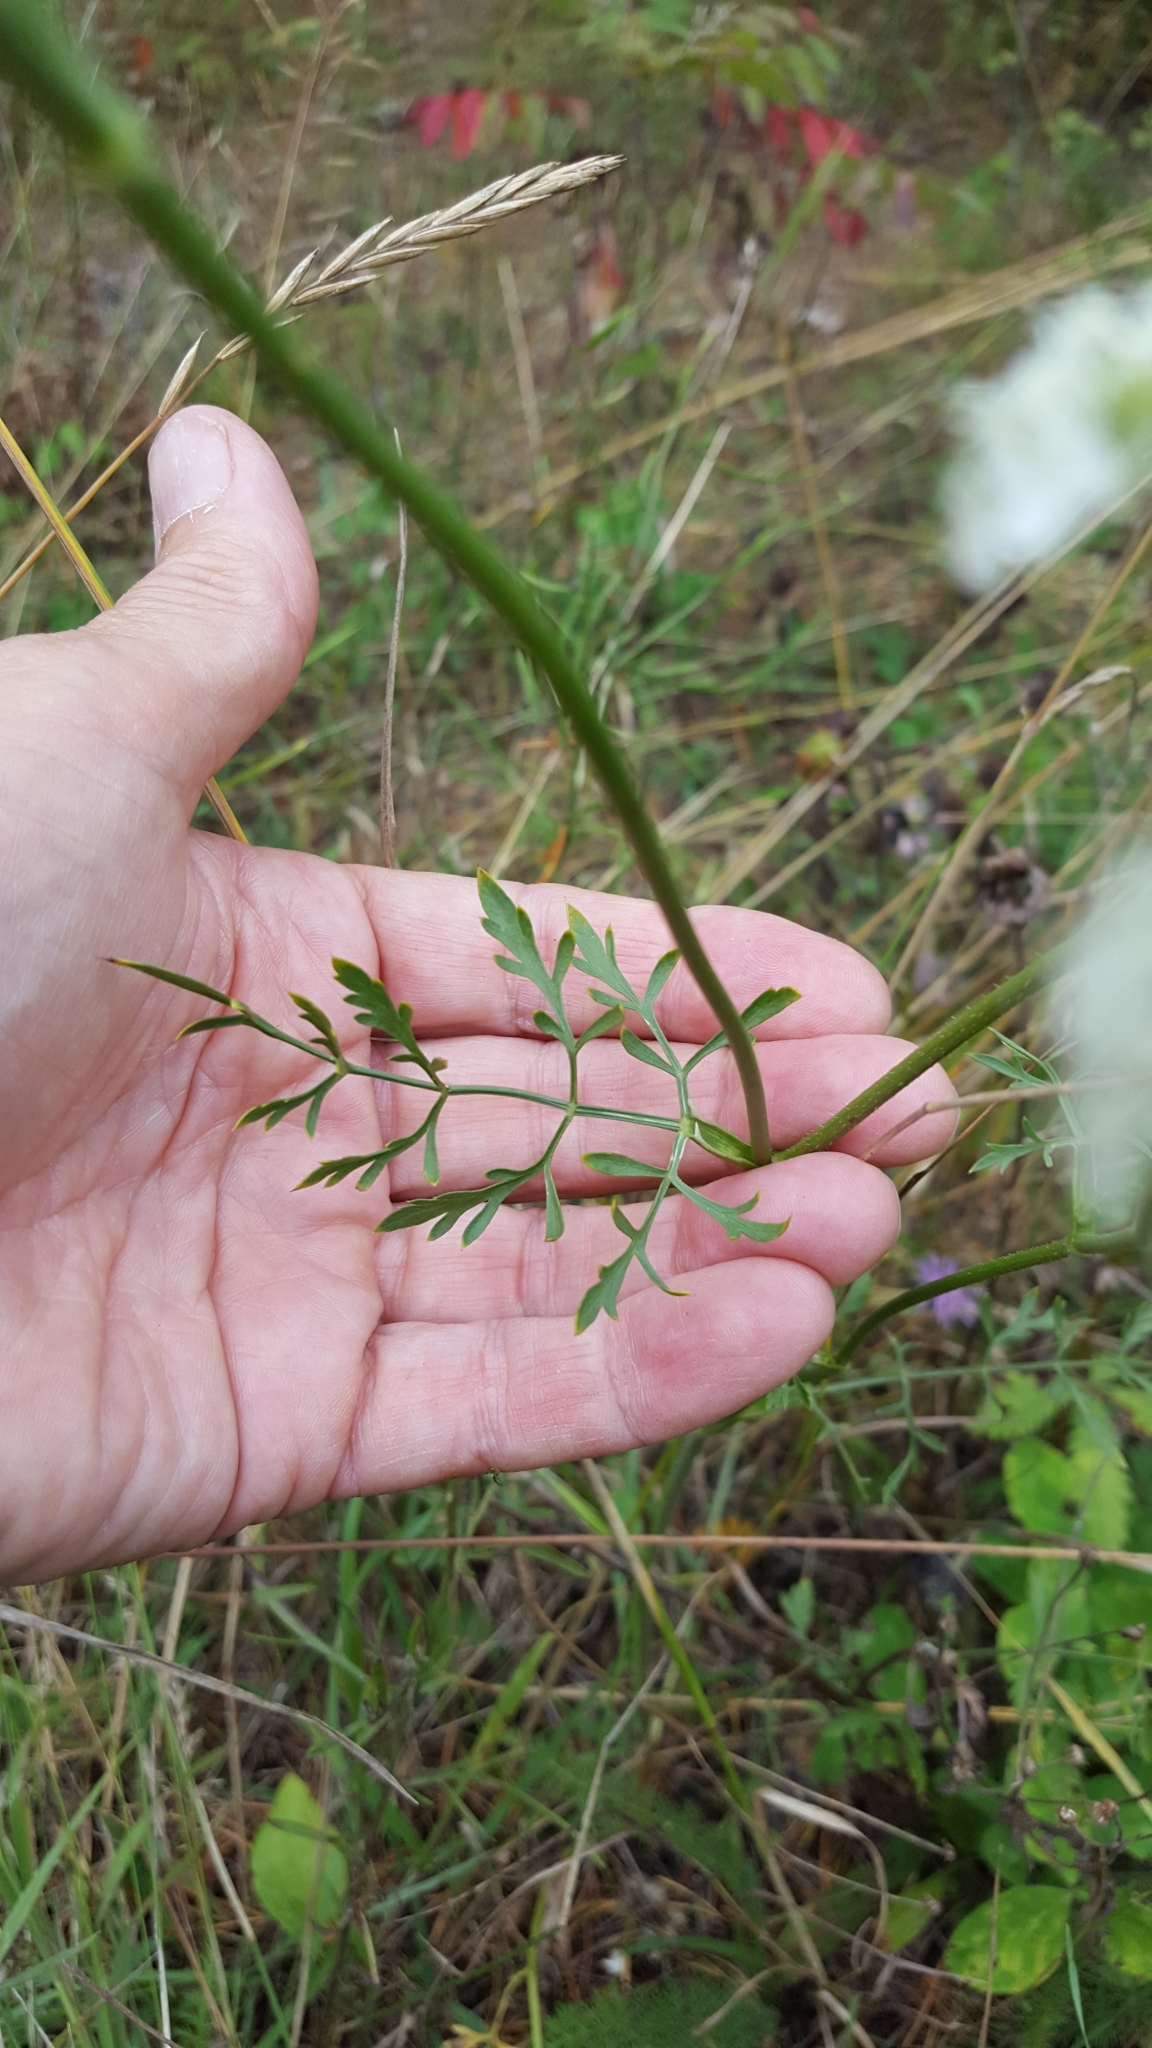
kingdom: Plantae
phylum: Tracheophyta
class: Magnoliopsida
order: Apiales
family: Apiaceae
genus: Daucus
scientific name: Daucus carota
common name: Wild carrot
